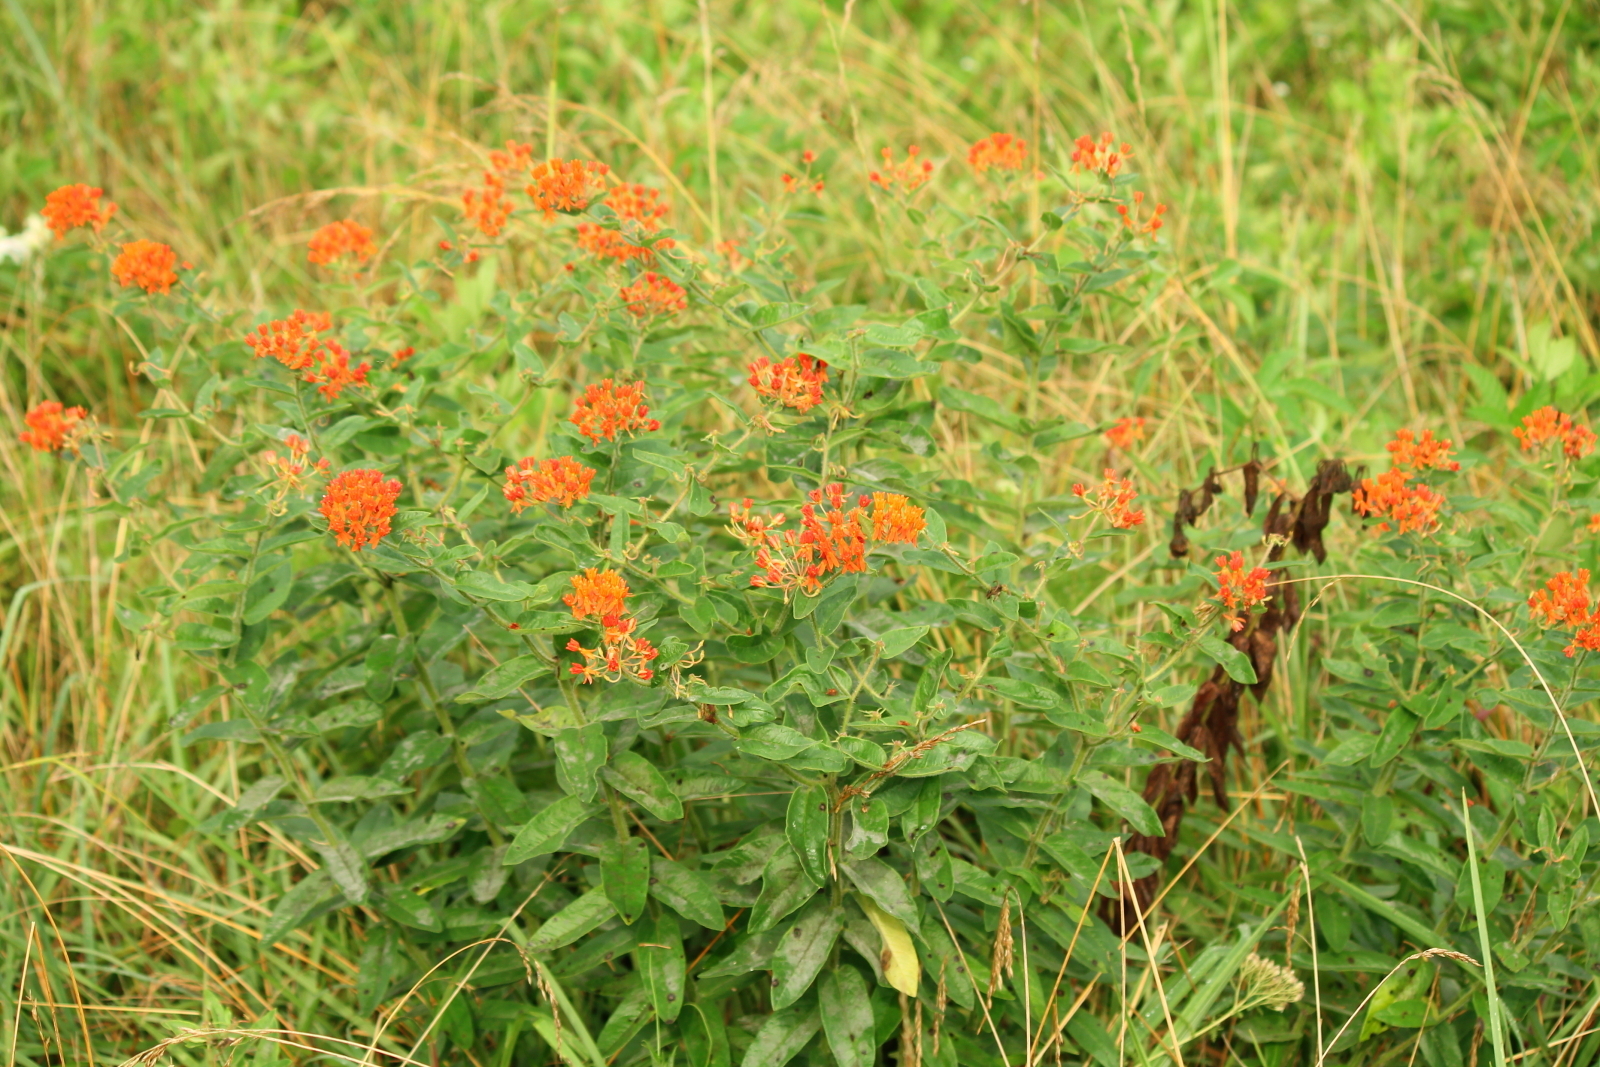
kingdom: Plantae
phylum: Tracheophyta
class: Magnoliopsida
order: Gentianales
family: Apocynaceae
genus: Asclepias
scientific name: Asclepias tuberosa
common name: Butterfly milkweed
